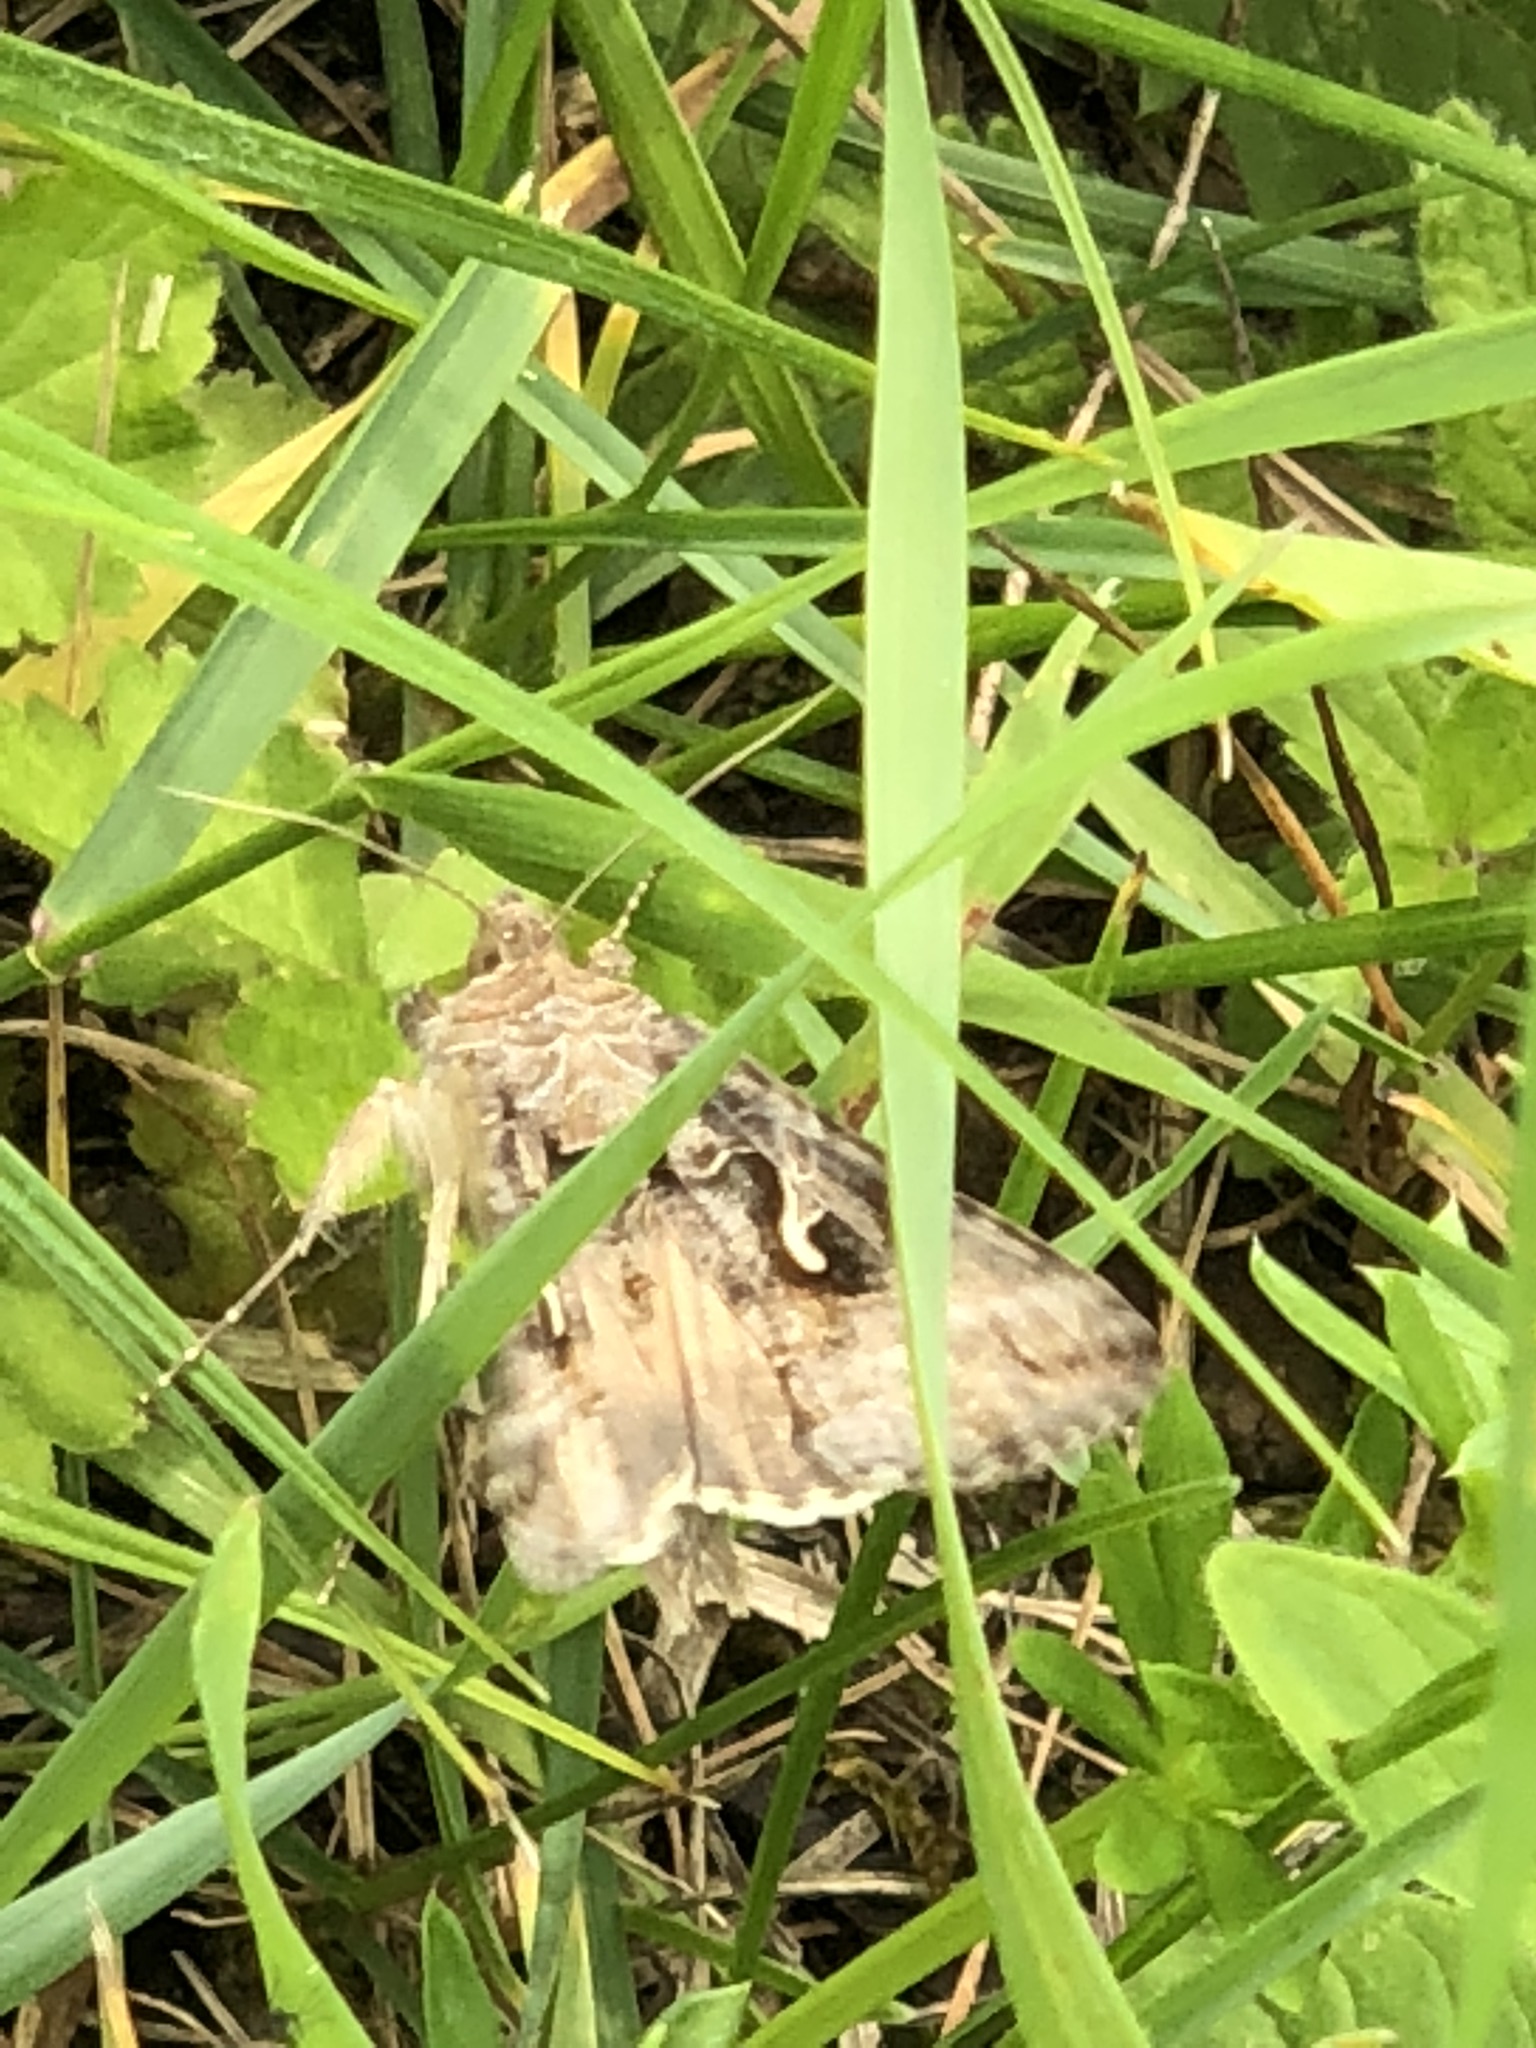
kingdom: Animalia
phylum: Arthropoda
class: Insecta
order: Lepidoptera
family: Noctuidae
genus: Autographa
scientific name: Autographa gamma
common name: Silver y
